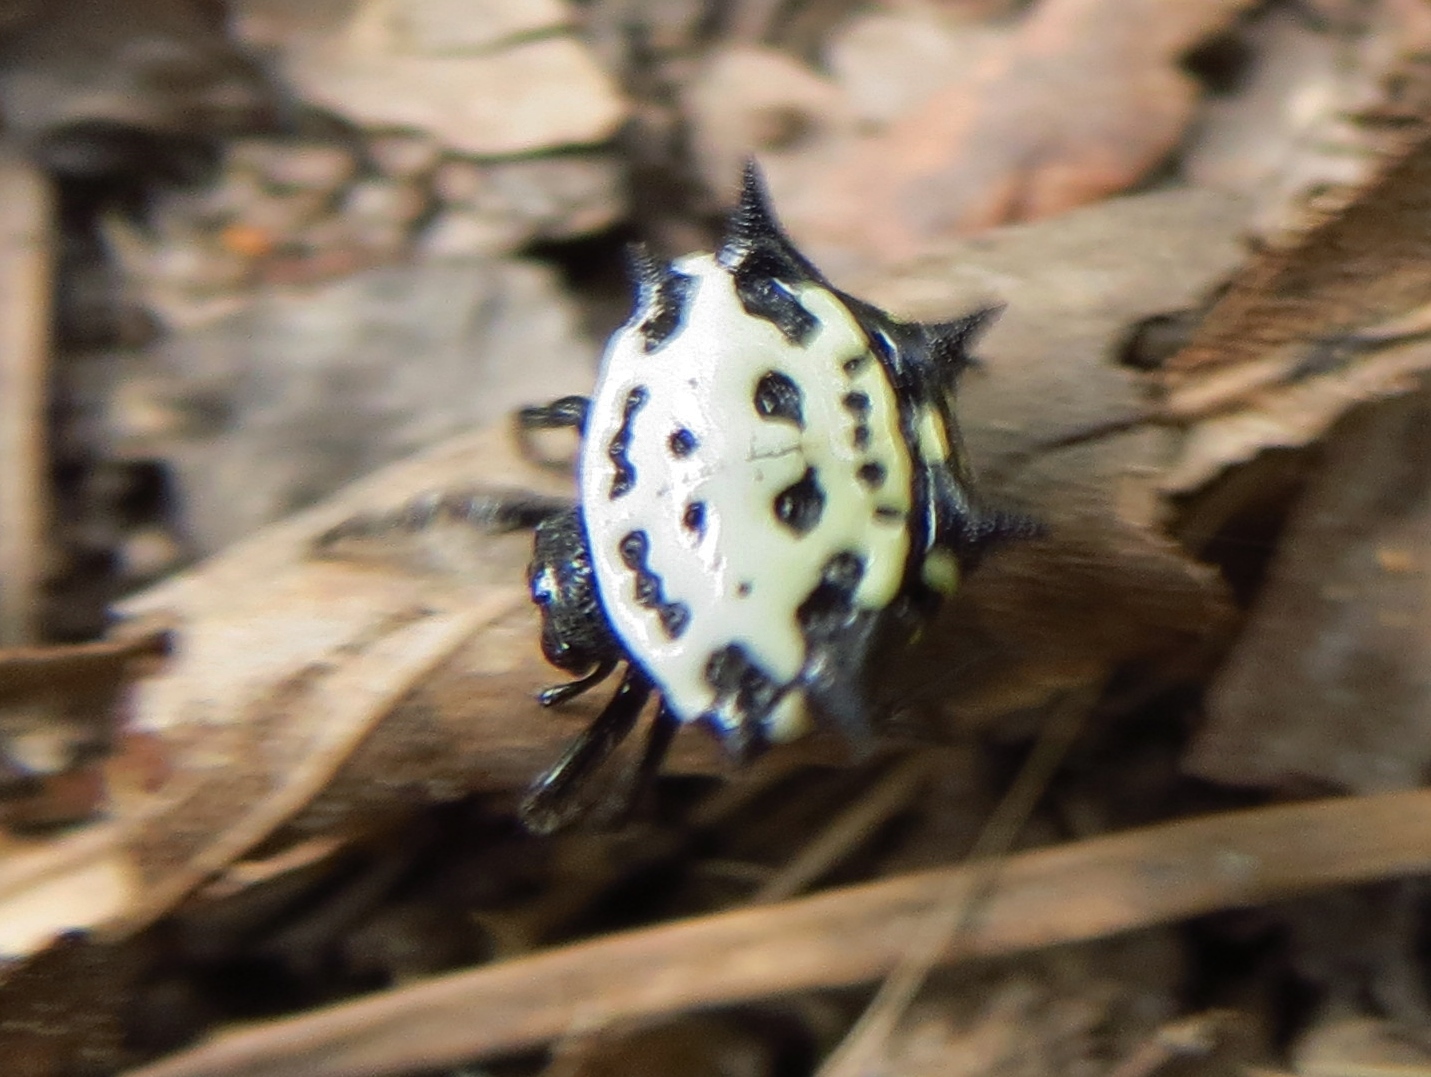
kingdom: Animalia
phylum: Arthropoda
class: Arachnida
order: Araneae
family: Araneidae
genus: Gasteracantha
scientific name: Gasteracantha cancriformis
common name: Orb weavers
